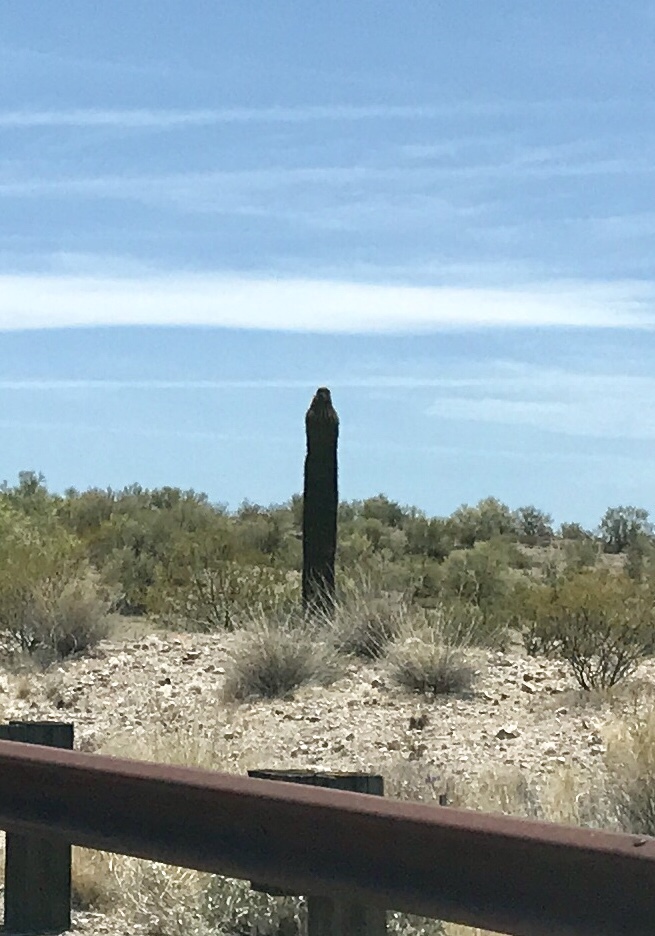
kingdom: Plantae
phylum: Tracheophyta
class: Magnoliopsida
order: Caryophyllales
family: Cactaceae
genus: Carnegiea
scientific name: Carnegiea gigantea
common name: Saguaro
